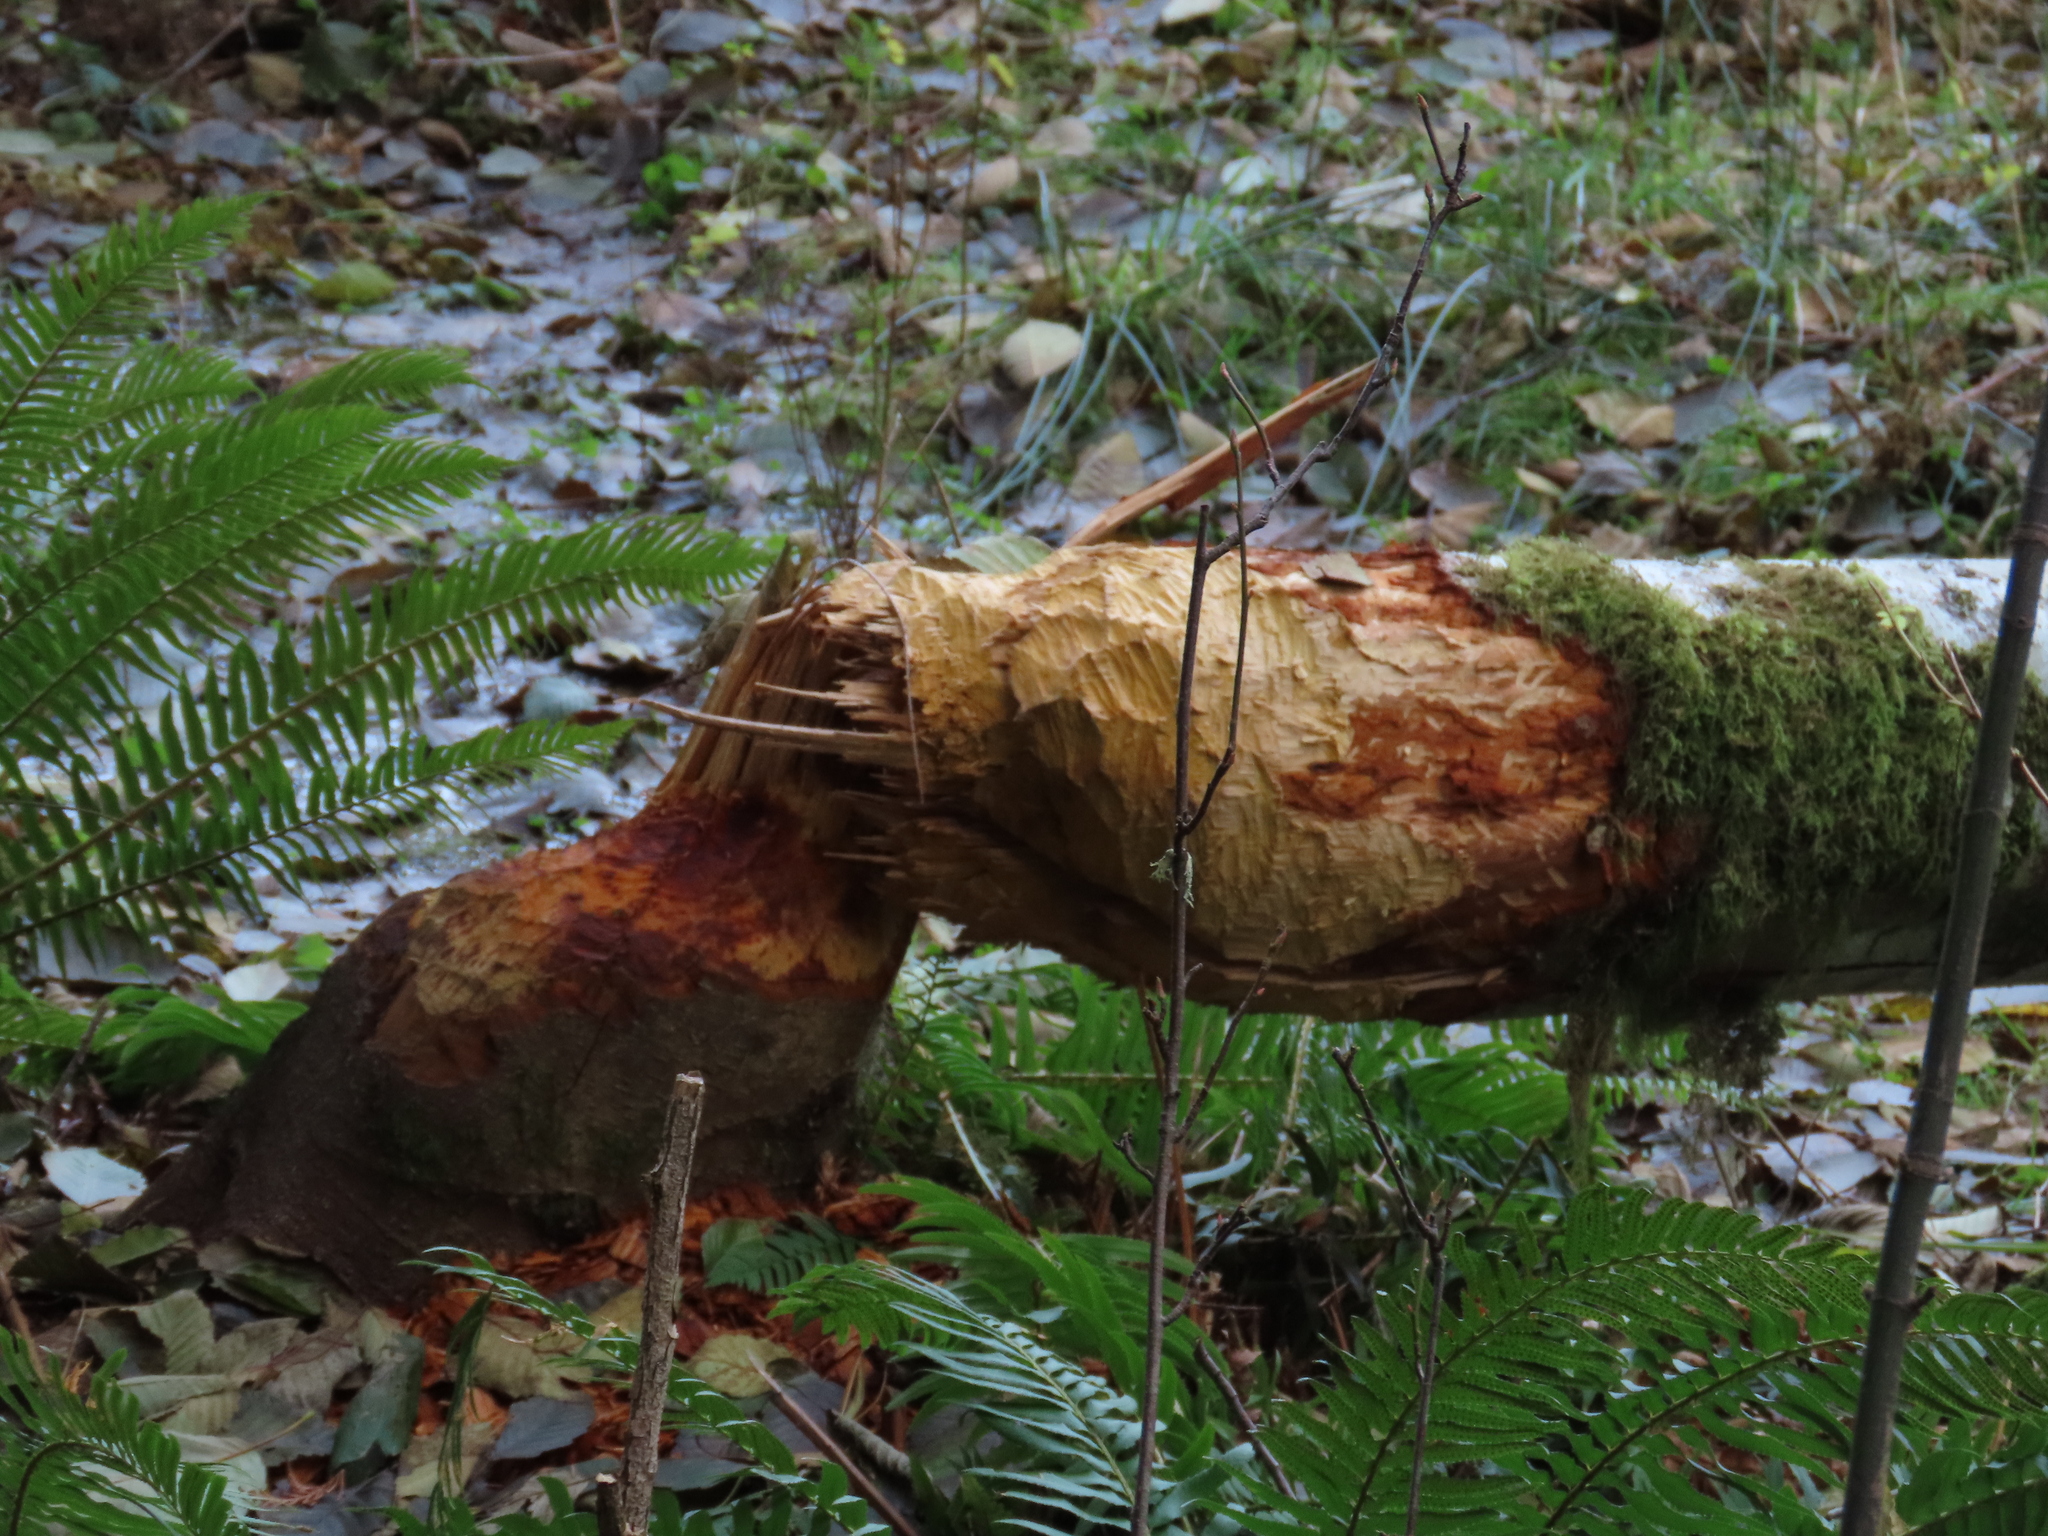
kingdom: Animalia
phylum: Chordata
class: Mammalia
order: Rodentia
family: Castoridae
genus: Castor
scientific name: Castor canadensis
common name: American beaver
